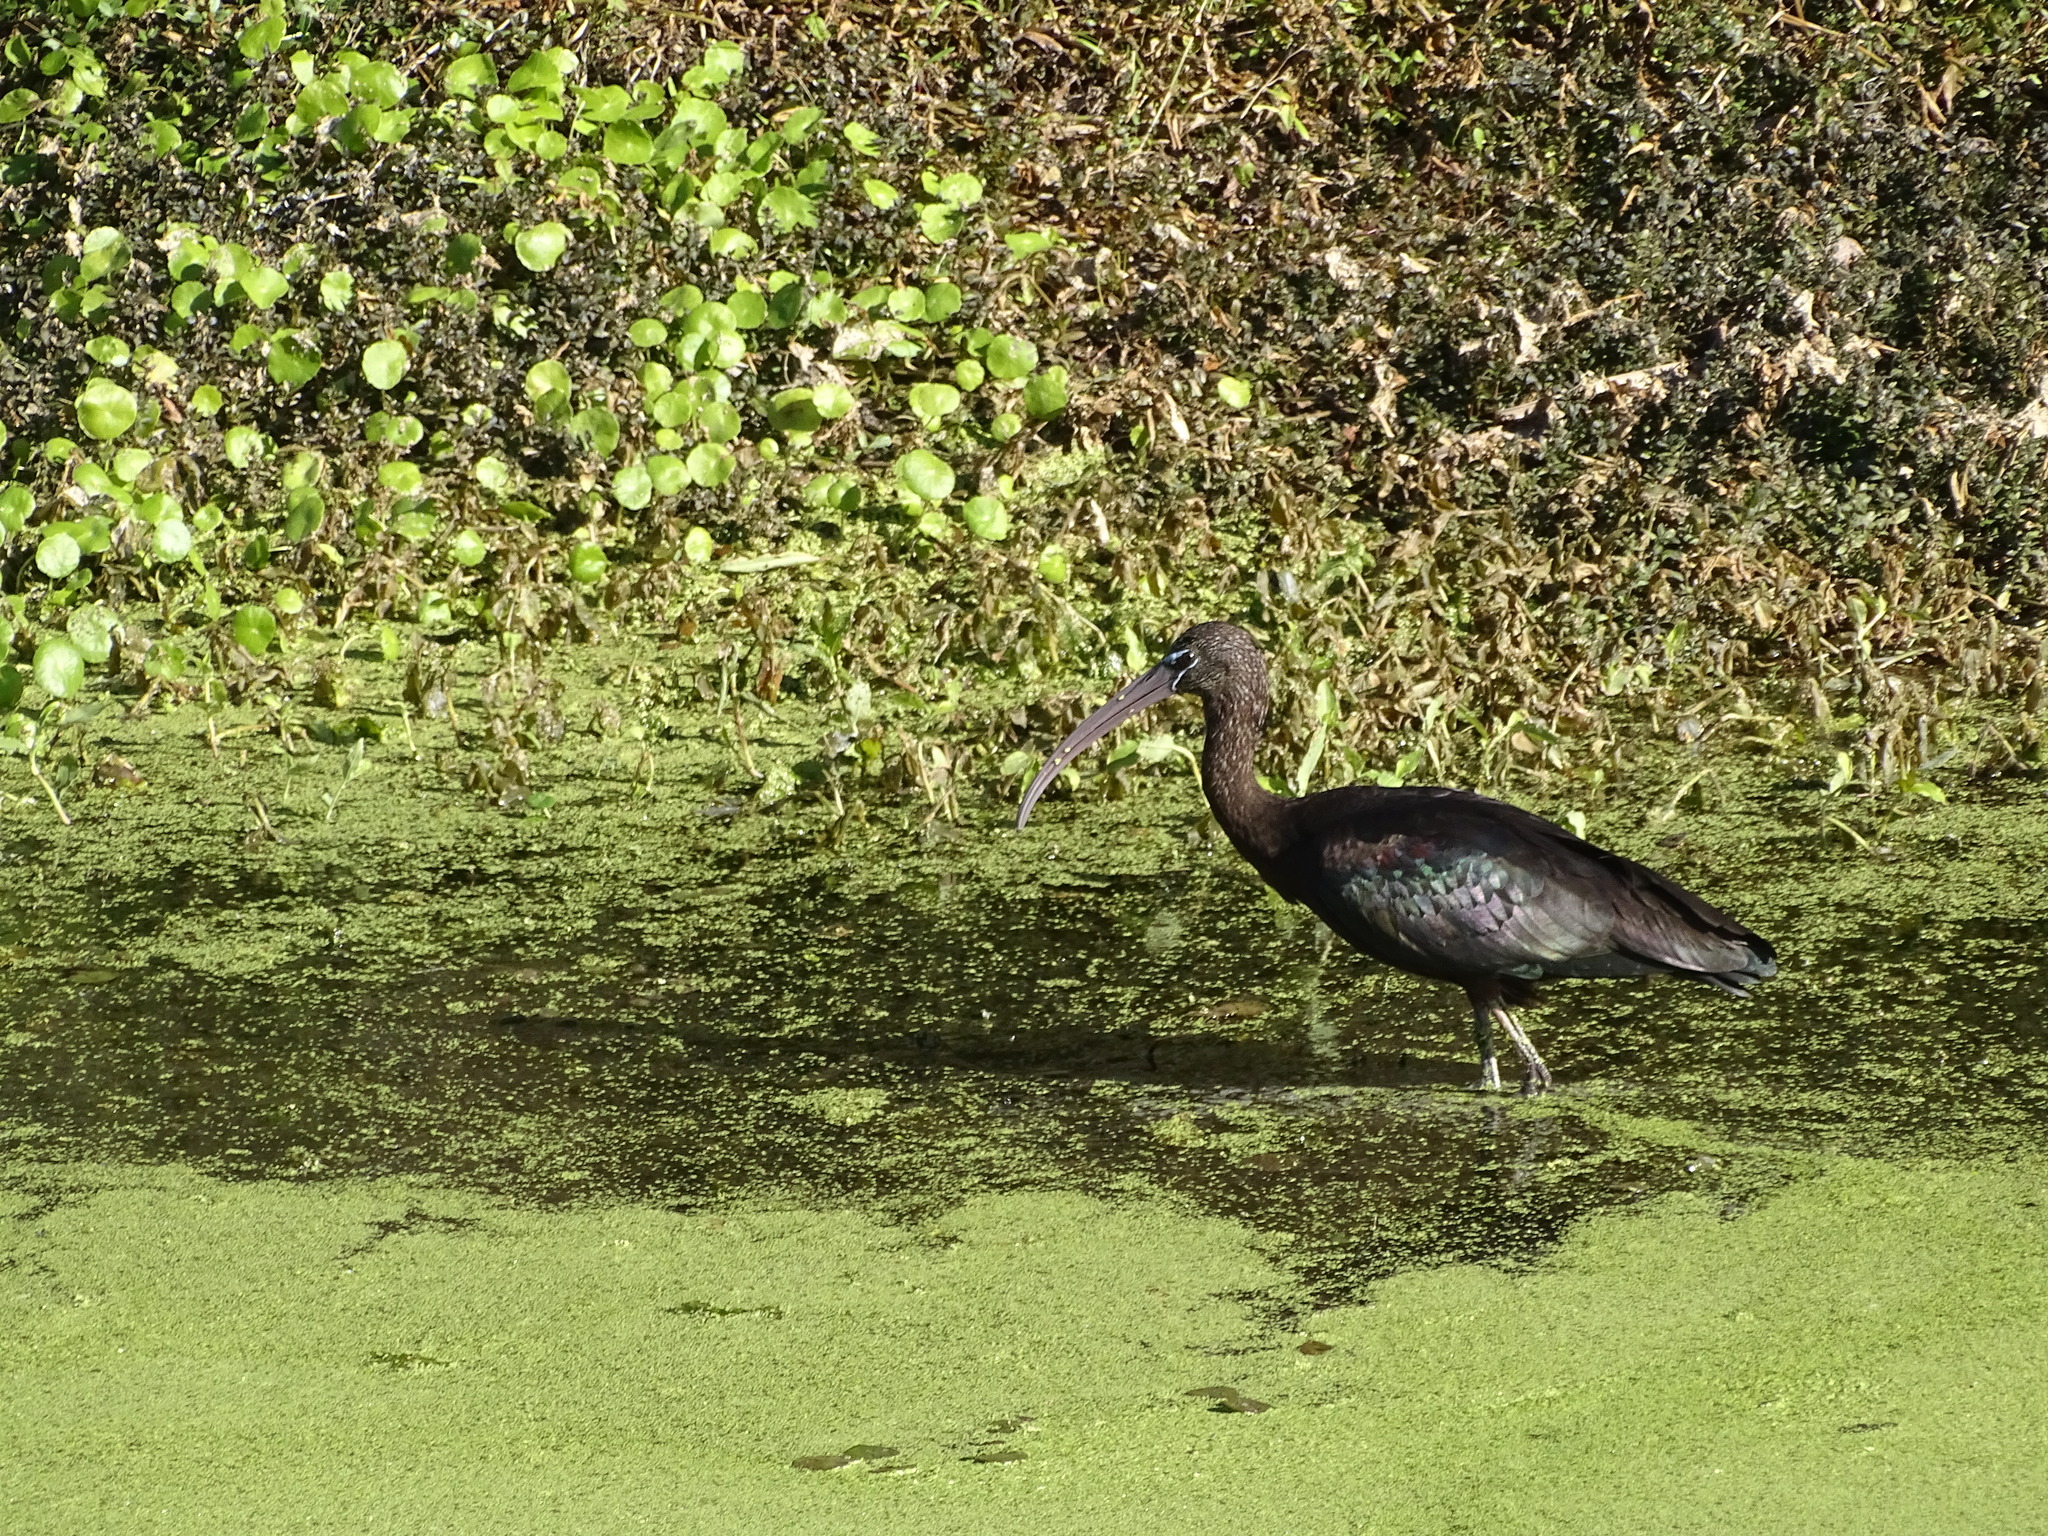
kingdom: Animalia
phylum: Chordata
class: Aves
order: Pelecaniformes
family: Threskiornithidae
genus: Plegadis
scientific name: Plegadis falcinellus
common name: Glossy ibis
